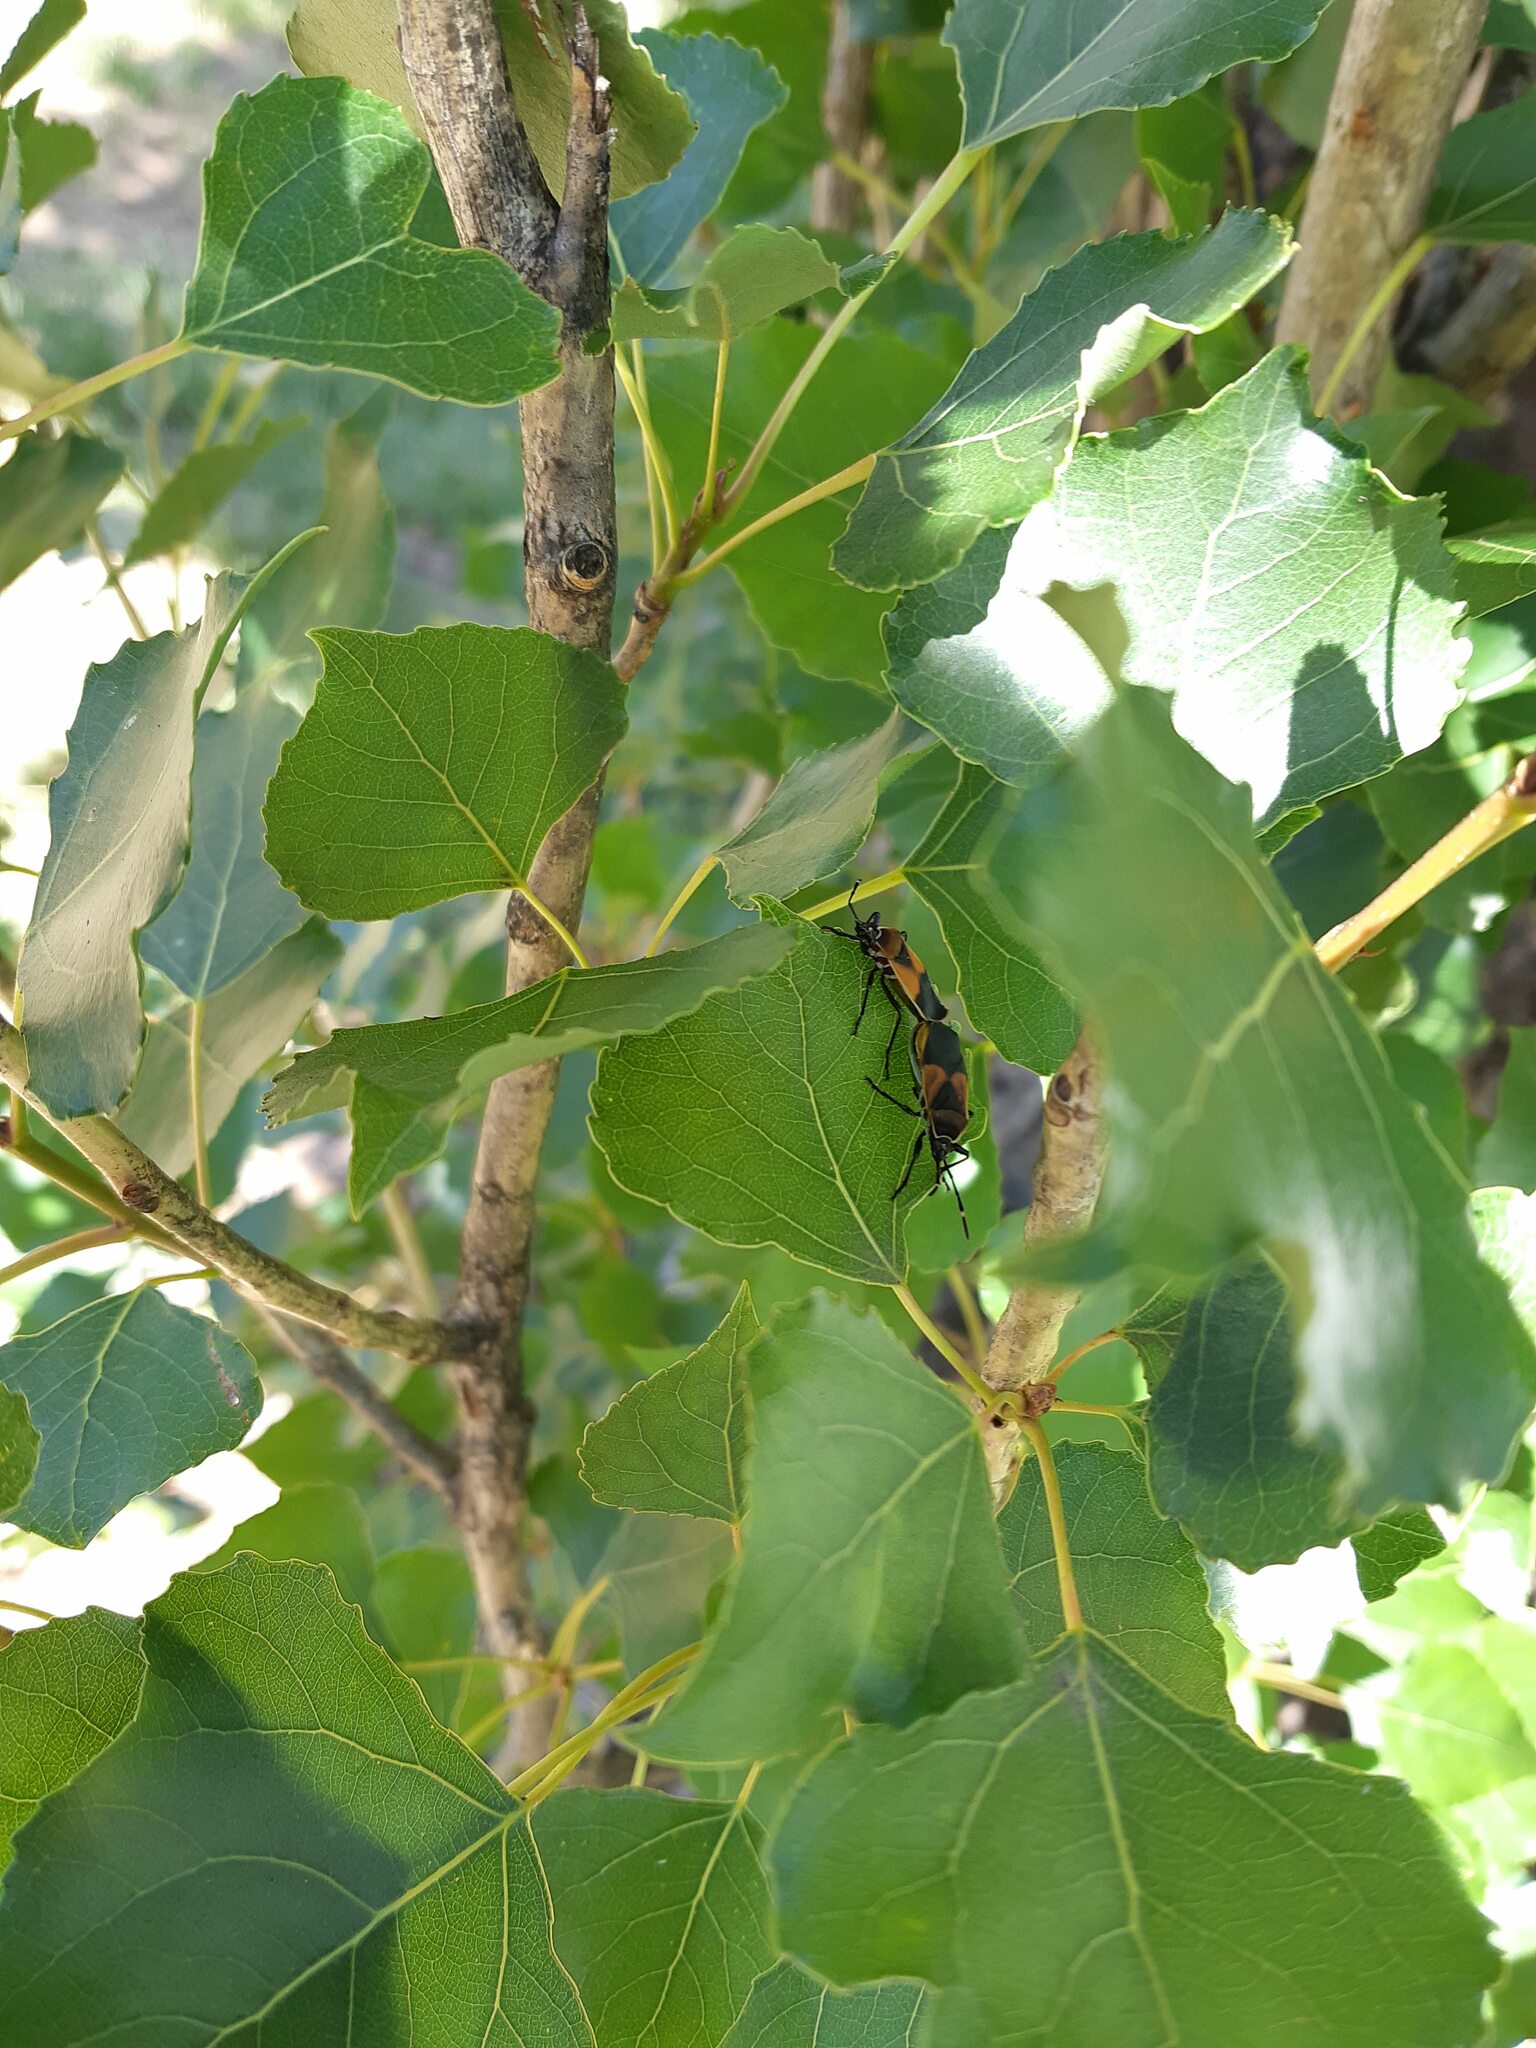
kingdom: Animalia
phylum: Arthropoda
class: Insecta
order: Hemiptera
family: Pyrrhocoridae
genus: Dindymus
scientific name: Dindymus
